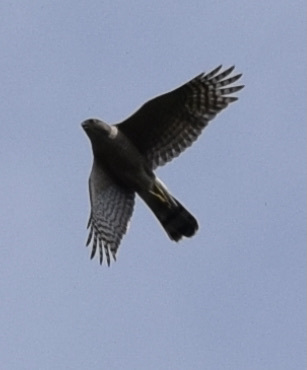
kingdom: Animalia
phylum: Chordata
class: Aves
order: Accipitriformes
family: Accipitridae
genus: Accipiter
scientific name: Accipiter cooperii
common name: Cooper's hawk
